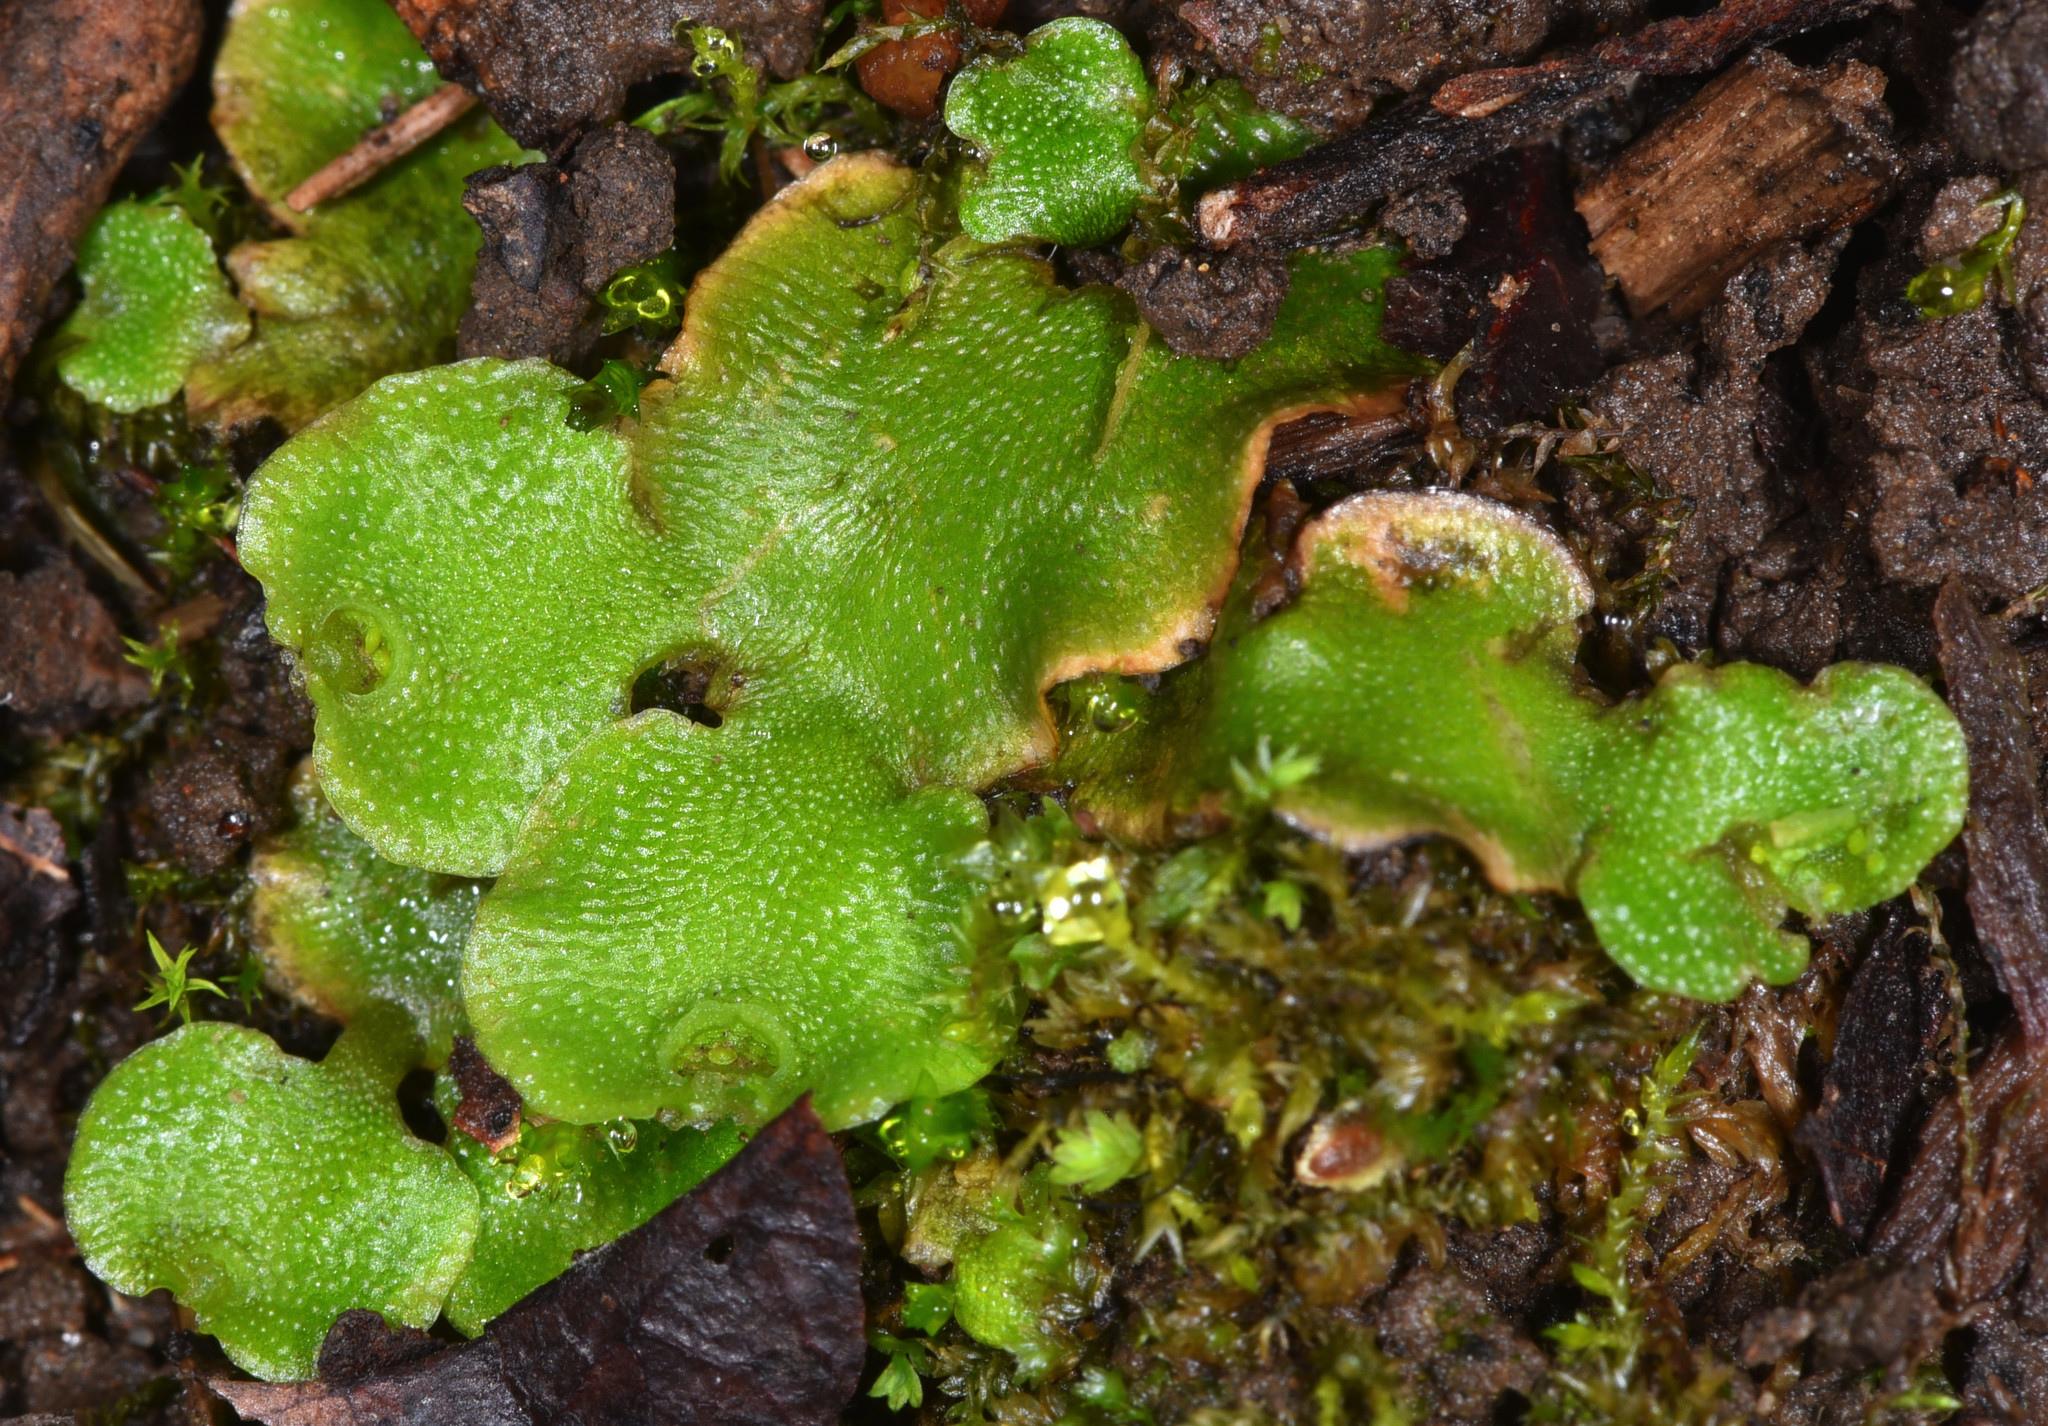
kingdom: Plantae
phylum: Marchantiophyta
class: Marchantiopsida
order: Lunulariales
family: Lunulariaceae
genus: Lunularia
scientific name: Lunularia cruciata
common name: Crescent-cup liverwort
